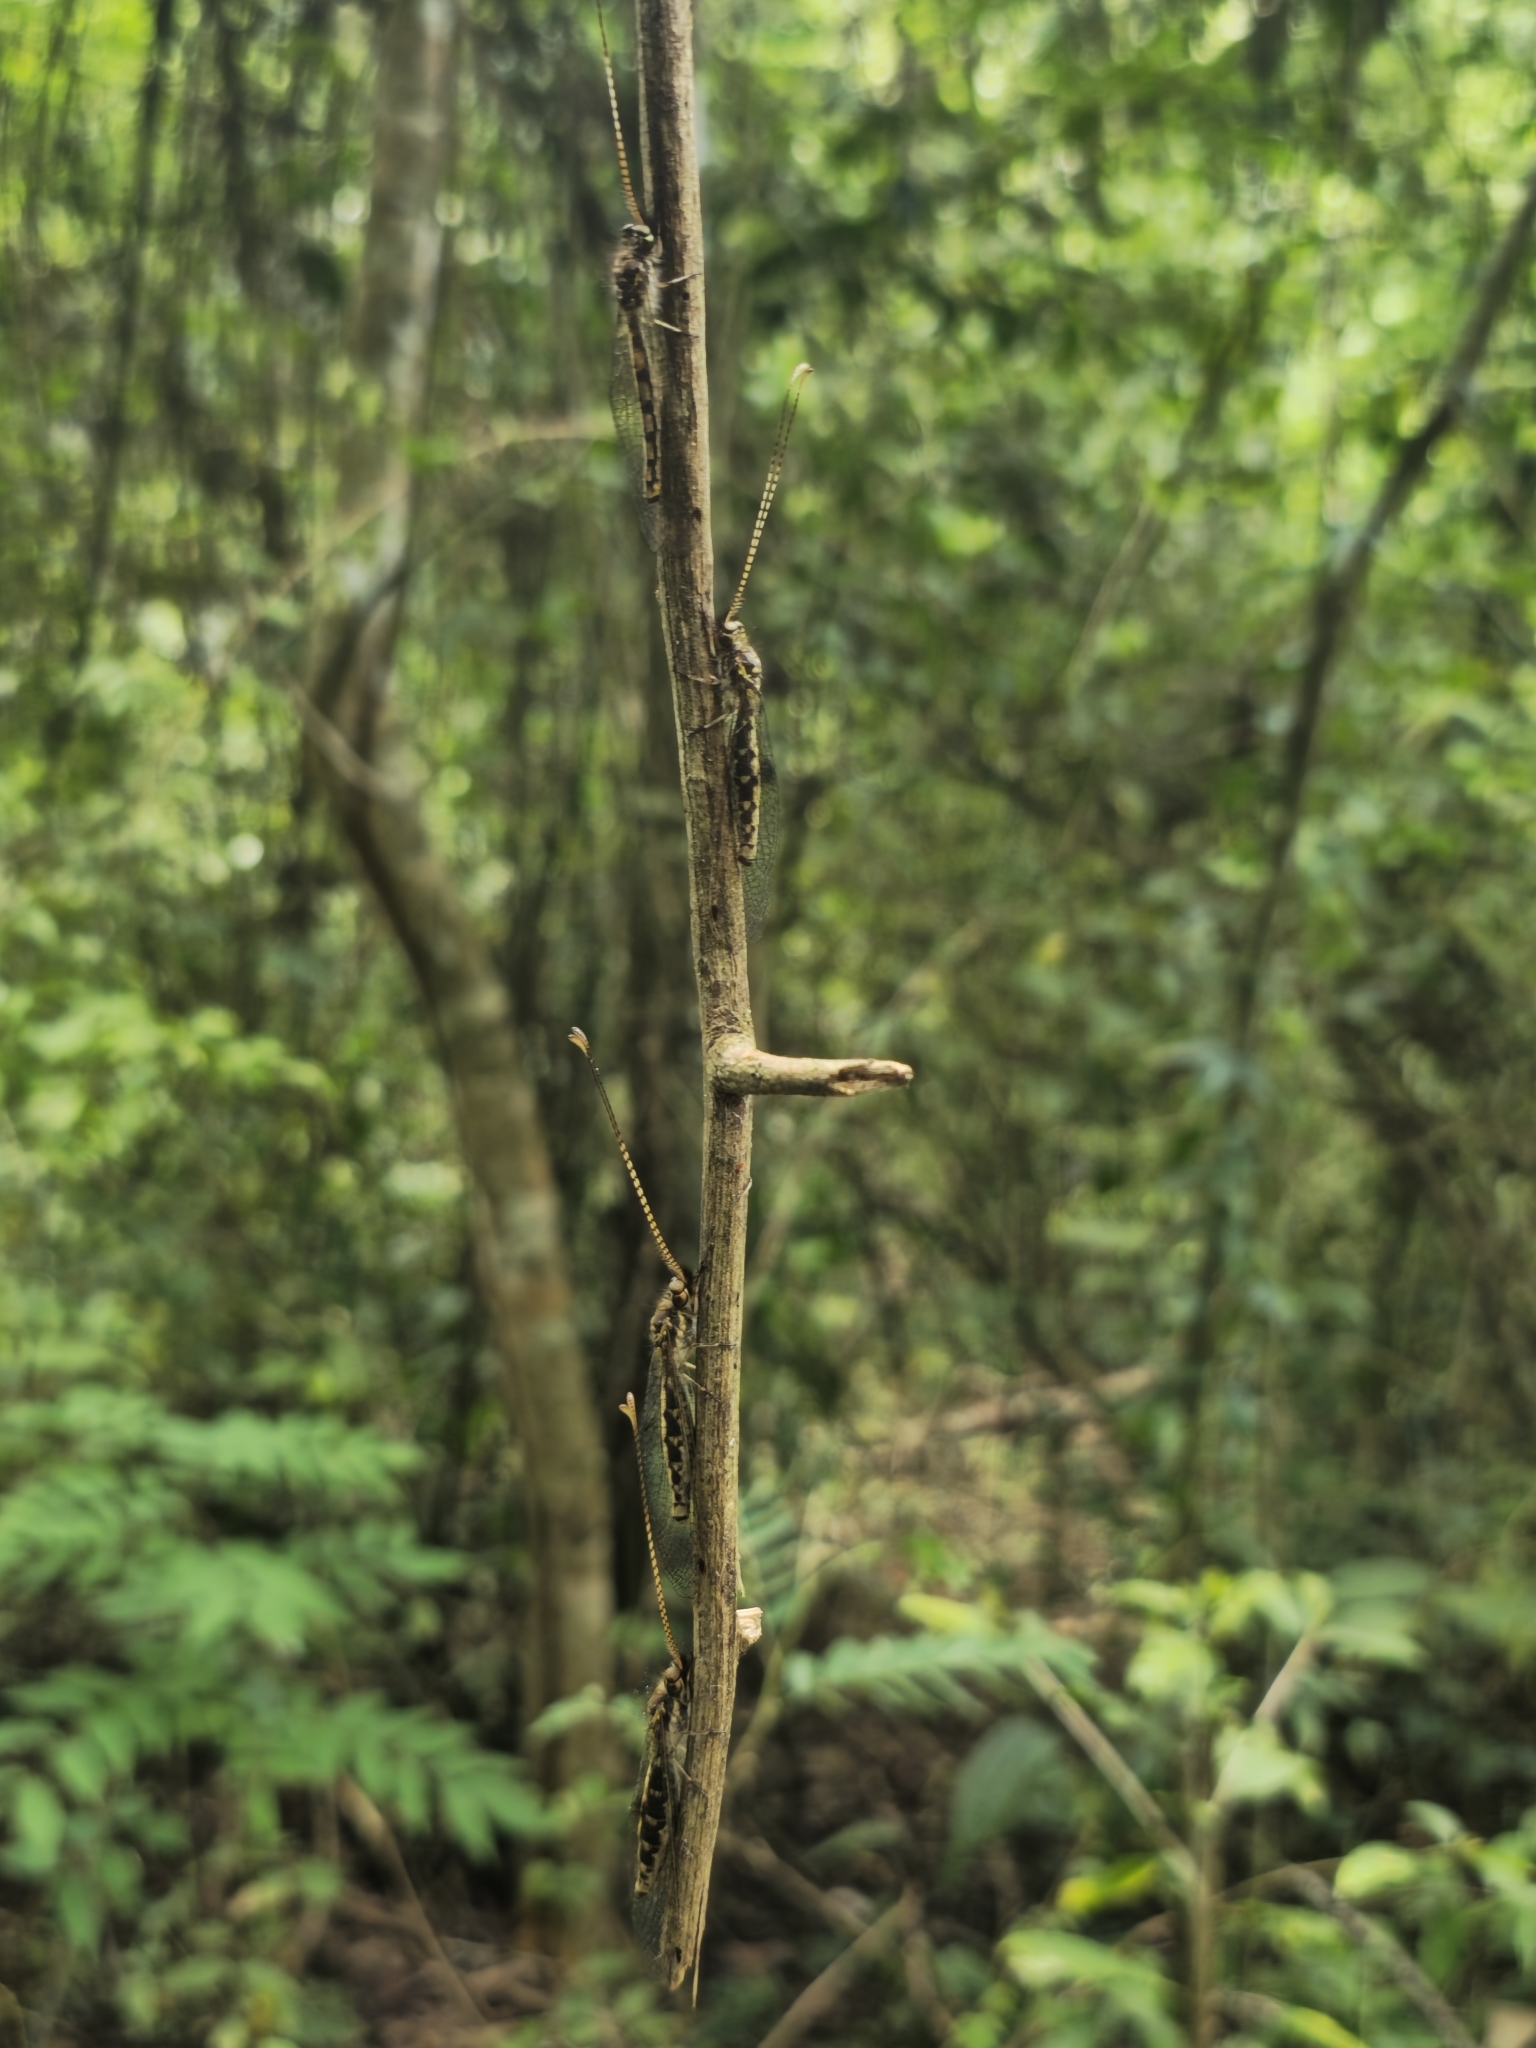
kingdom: Animalia
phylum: Arthropoda
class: Insecta
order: Neuroptera
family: Ascalaphidae
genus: Ameropterus
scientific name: Ameropterus versicolor
